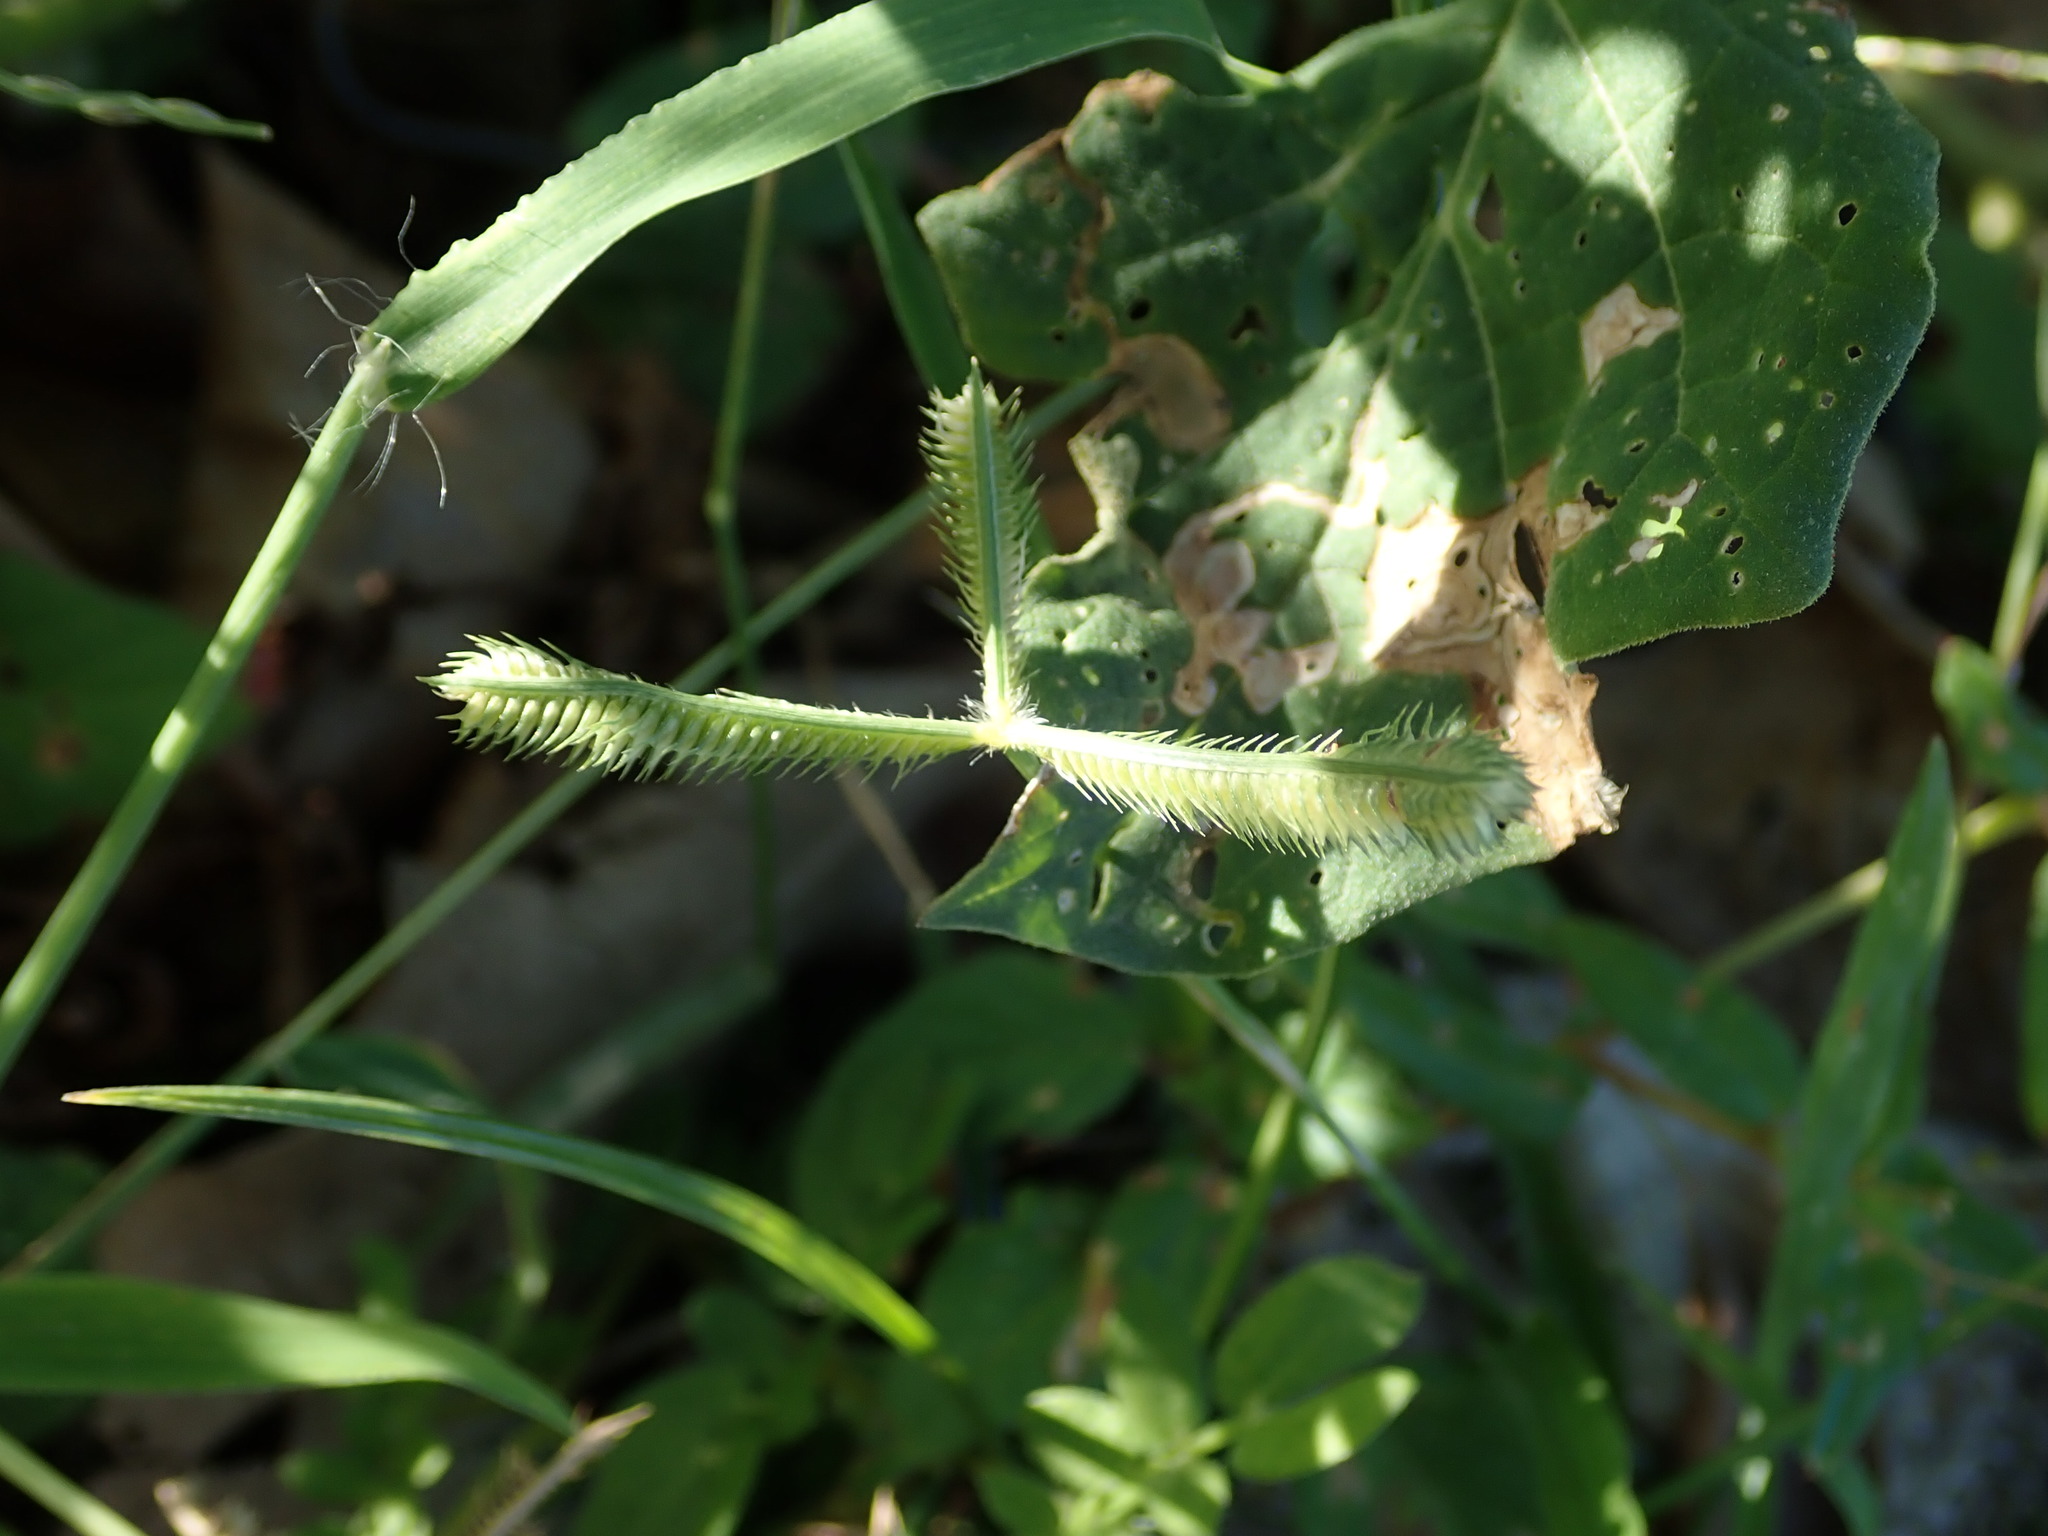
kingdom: Plantae
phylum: Tracheophyta
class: Liliopsida
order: Poales
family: Poaceae
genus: Dactyloctenium
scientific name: Dactyloctenium aegyptium
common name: Egyptian grass
